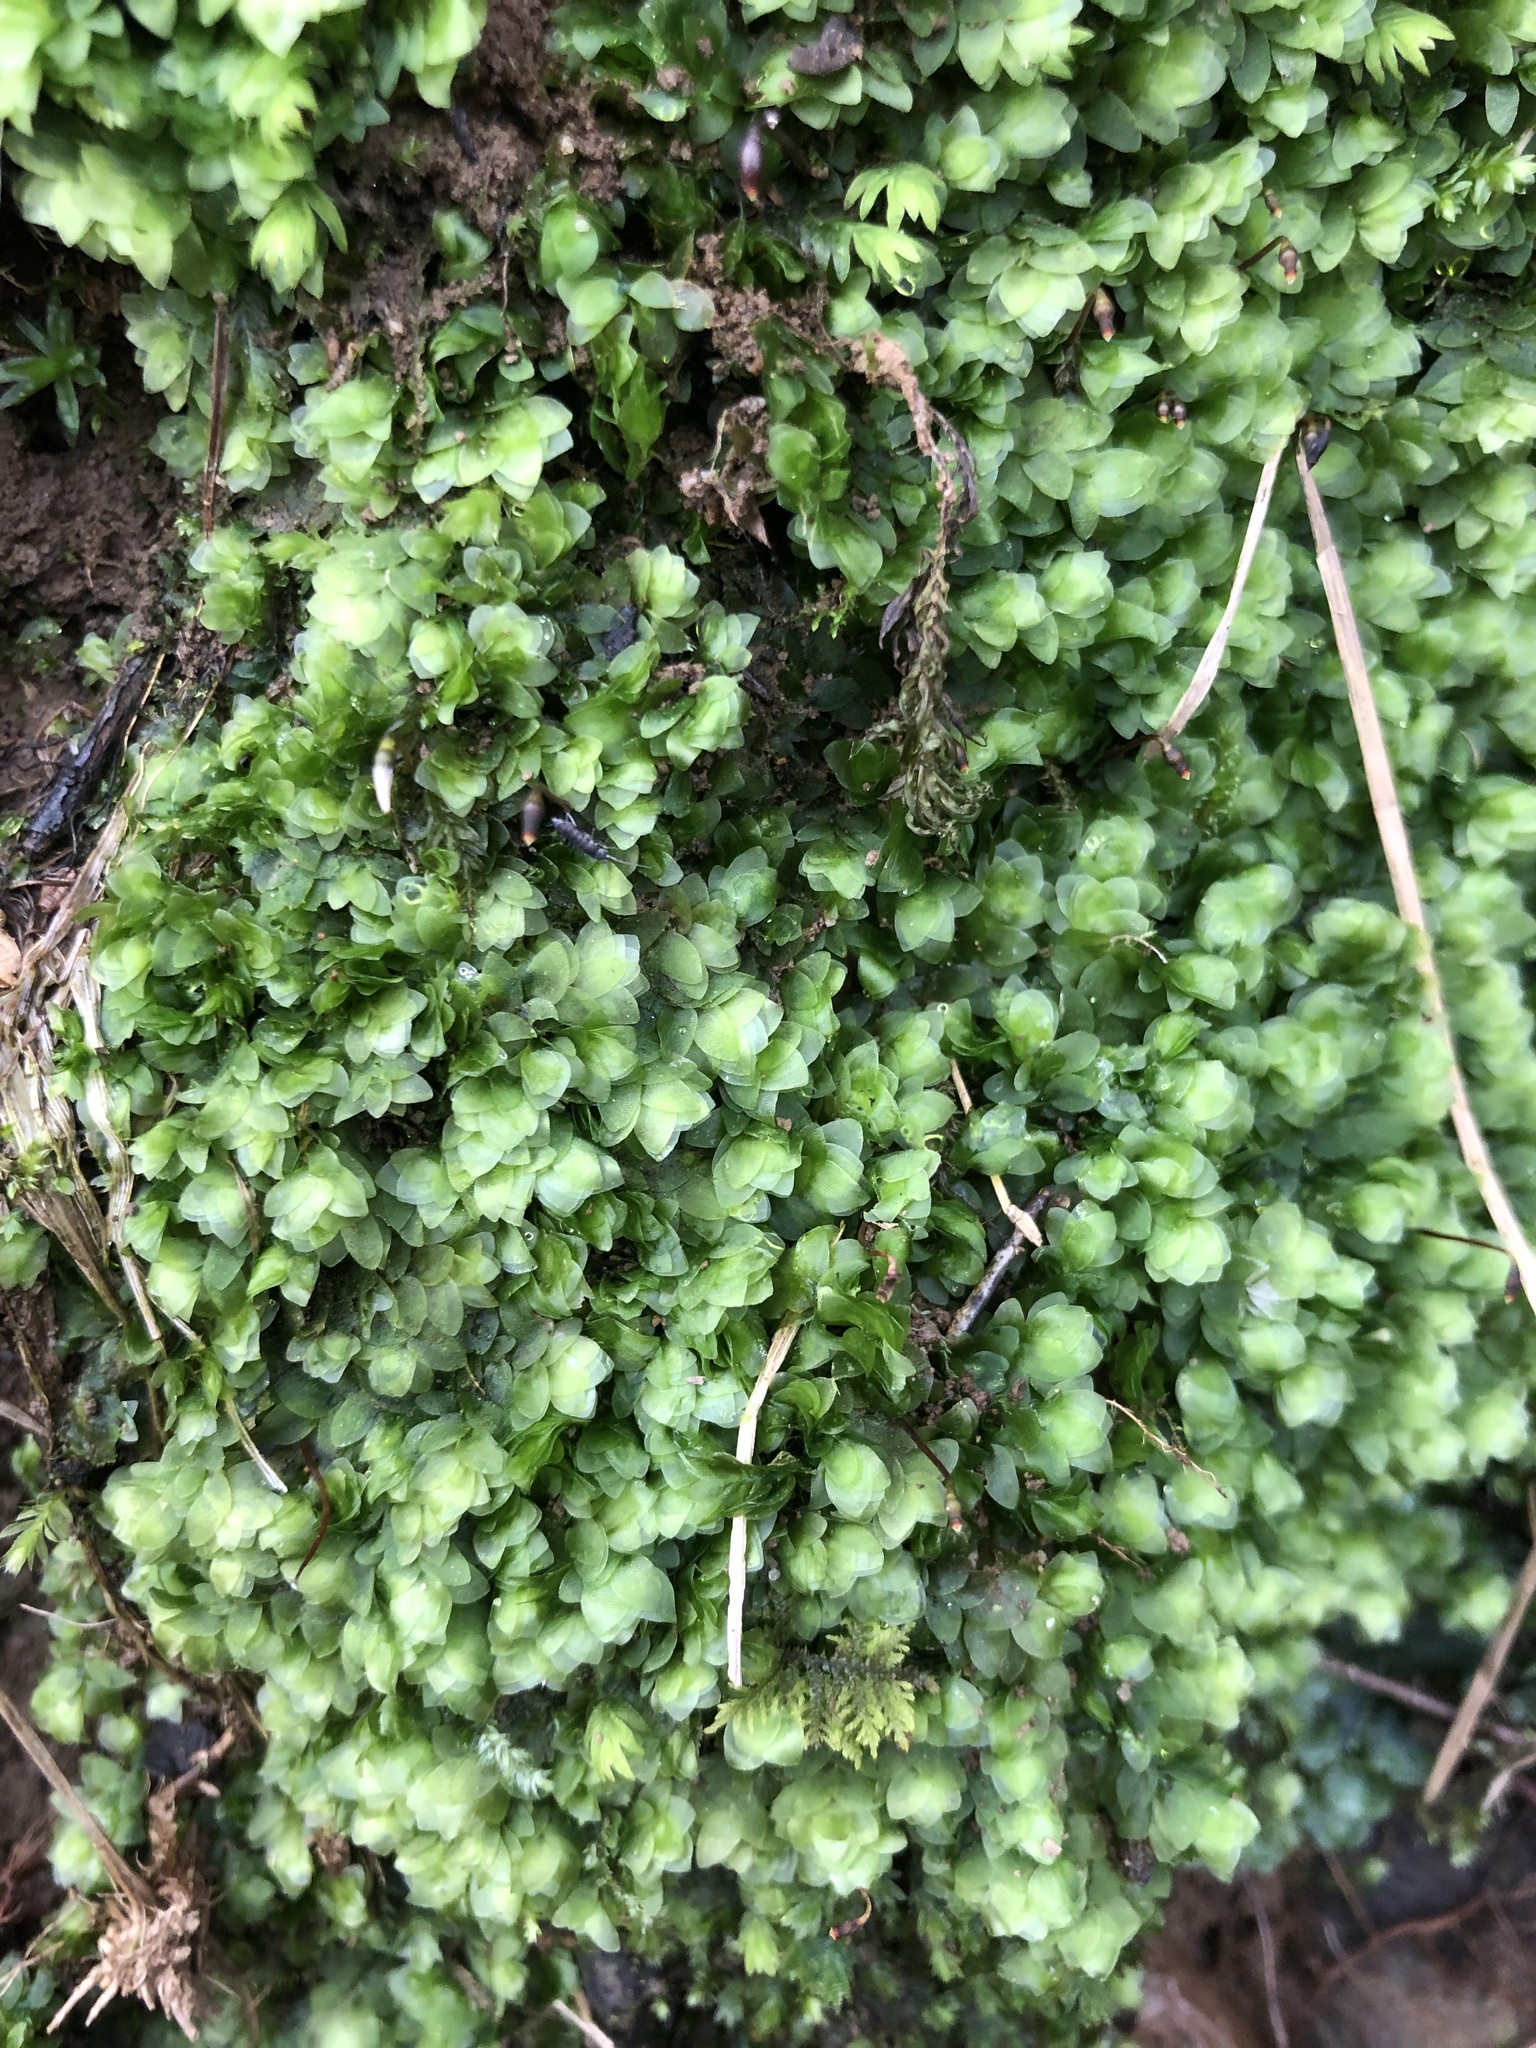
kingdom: Plantae
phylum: Bryophyta
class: Bryopsida
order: Hookeriales
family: Hookeriaceae
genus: Hookeria
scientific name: Hookeria lucens
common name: Shining hookeria
